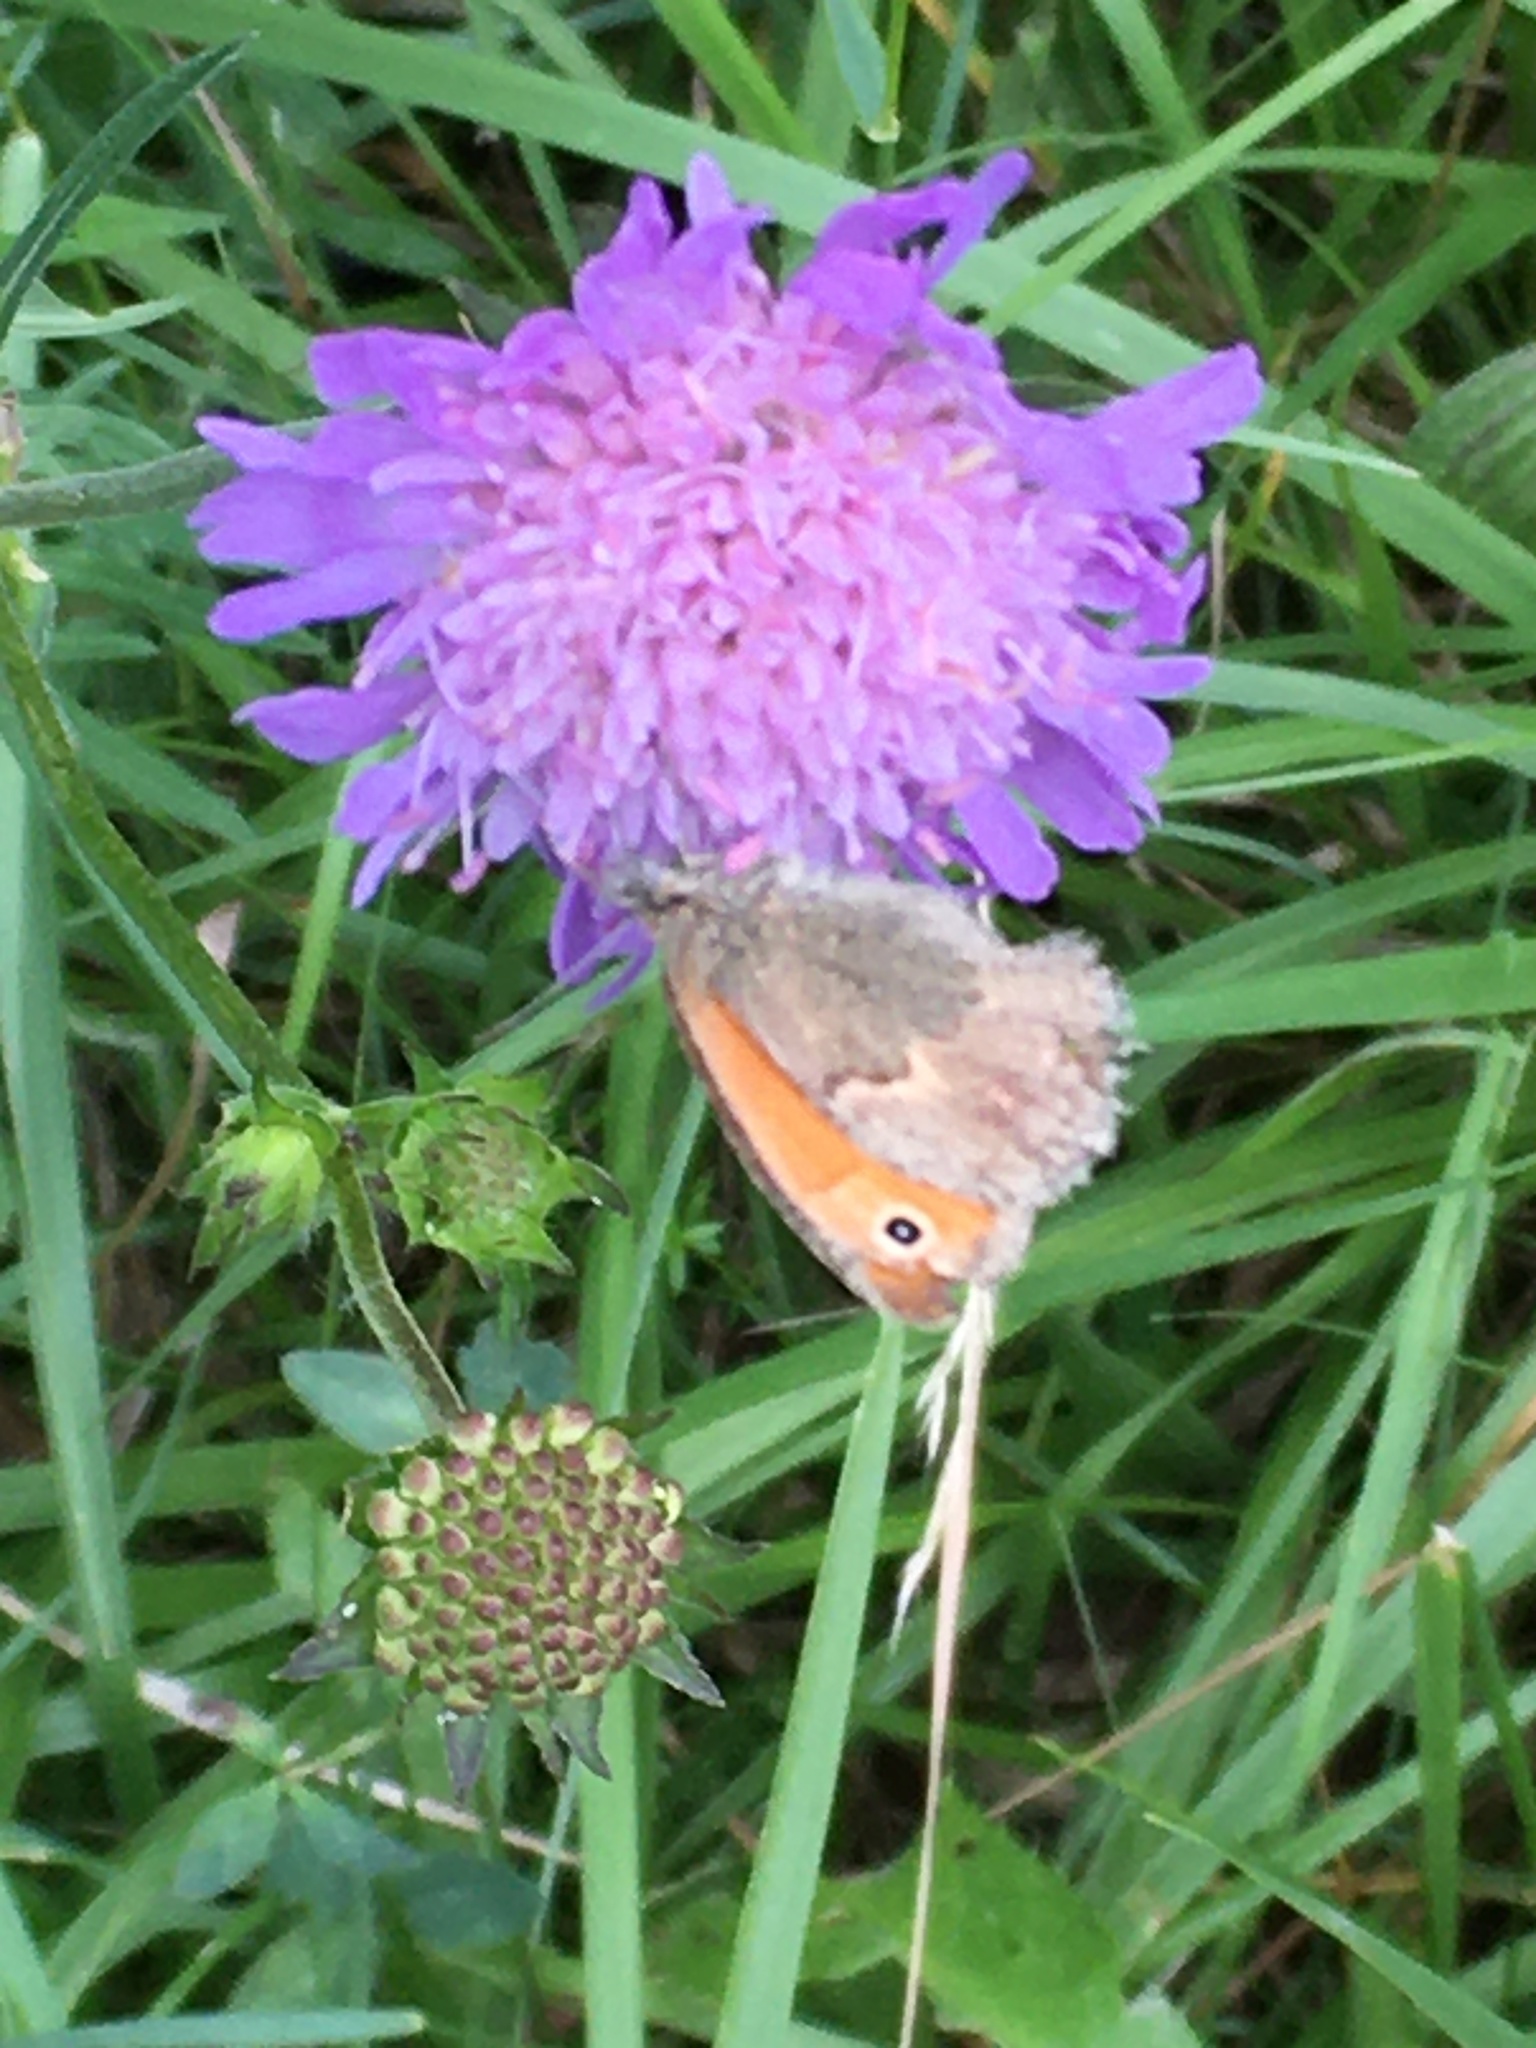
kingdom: Animalia
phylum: Arthropoda
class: Insecta
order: Lepidoptera
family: Nymphalidae
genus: Coenonympha
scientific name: Coenonympha pamphilus
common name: Small heath
